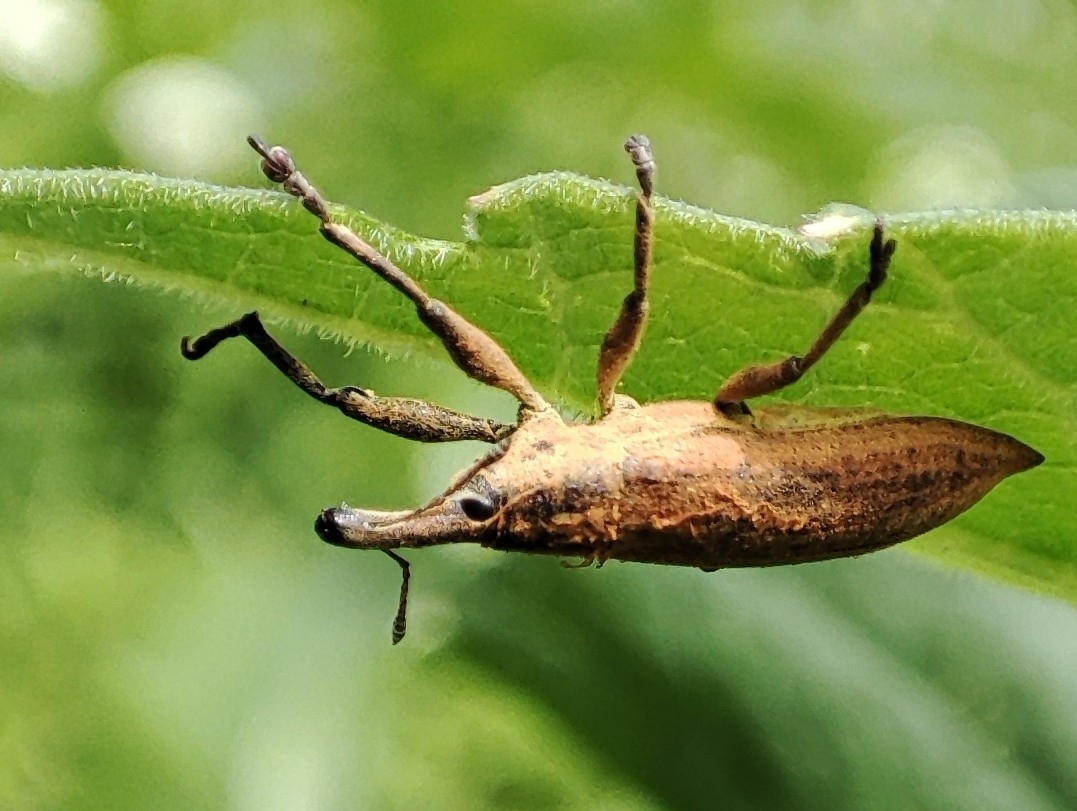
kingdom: Animalia
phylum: Arthropoda
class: Insecta
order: Coleoptera
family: Curculionidae
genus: Lixus
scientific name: Lixus iridis
